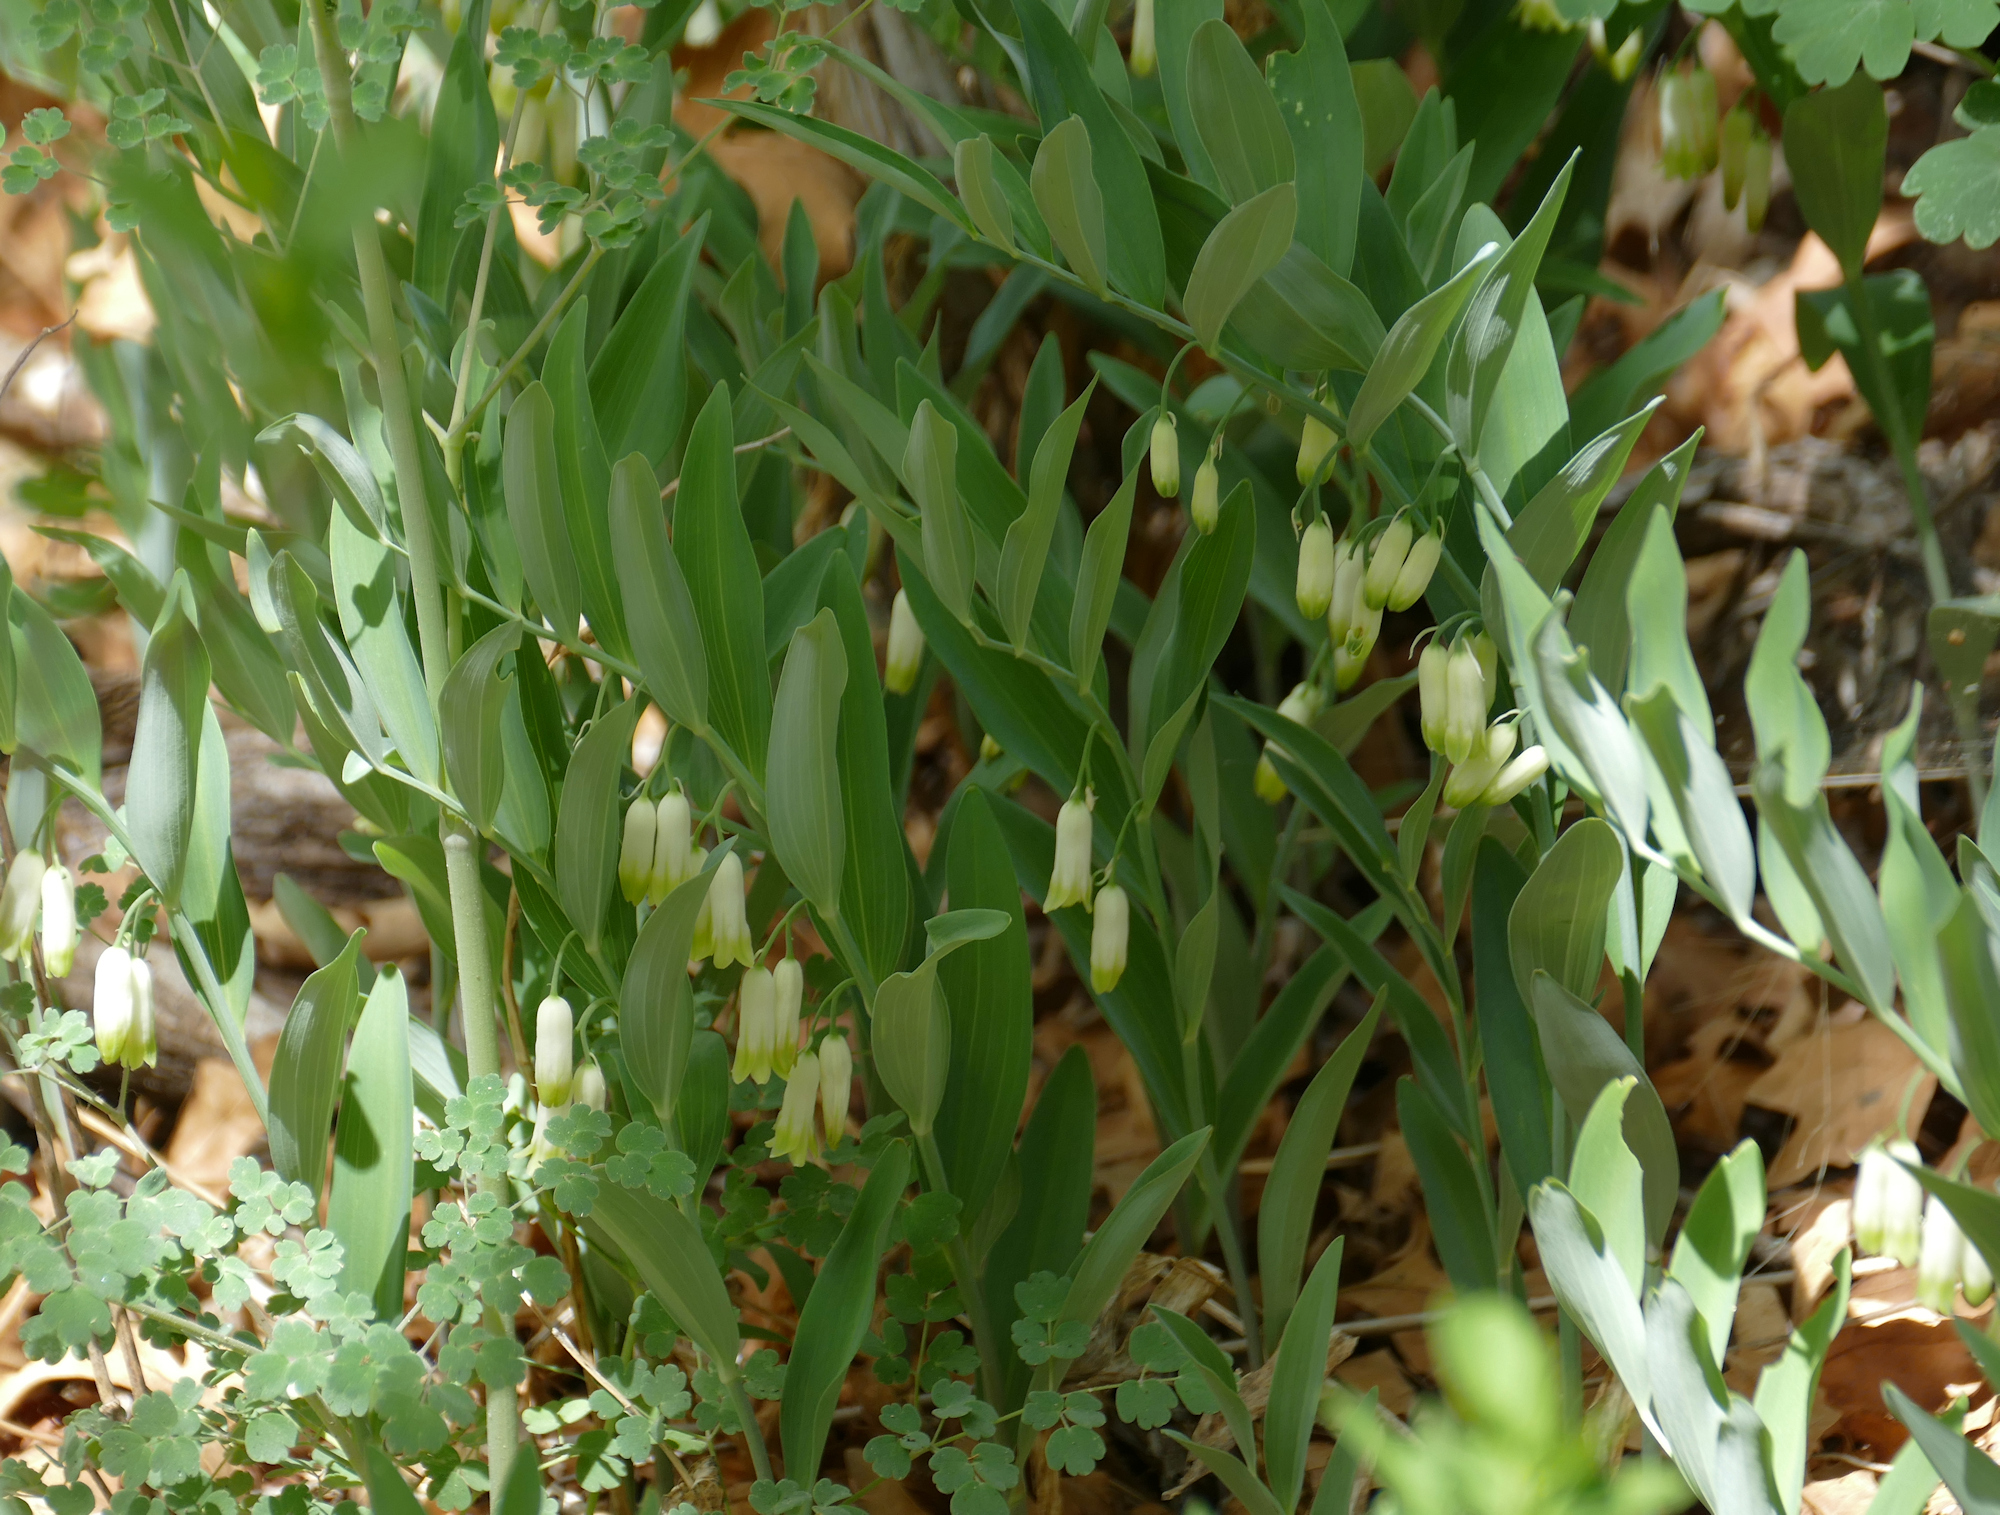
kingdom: Plantae
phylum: Tracheophyta
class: Liliopsida
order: Asparagales
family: Asparagaceae
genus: Polygonatum
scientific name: Polygonatum biflorum
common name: American solomon's-seal
